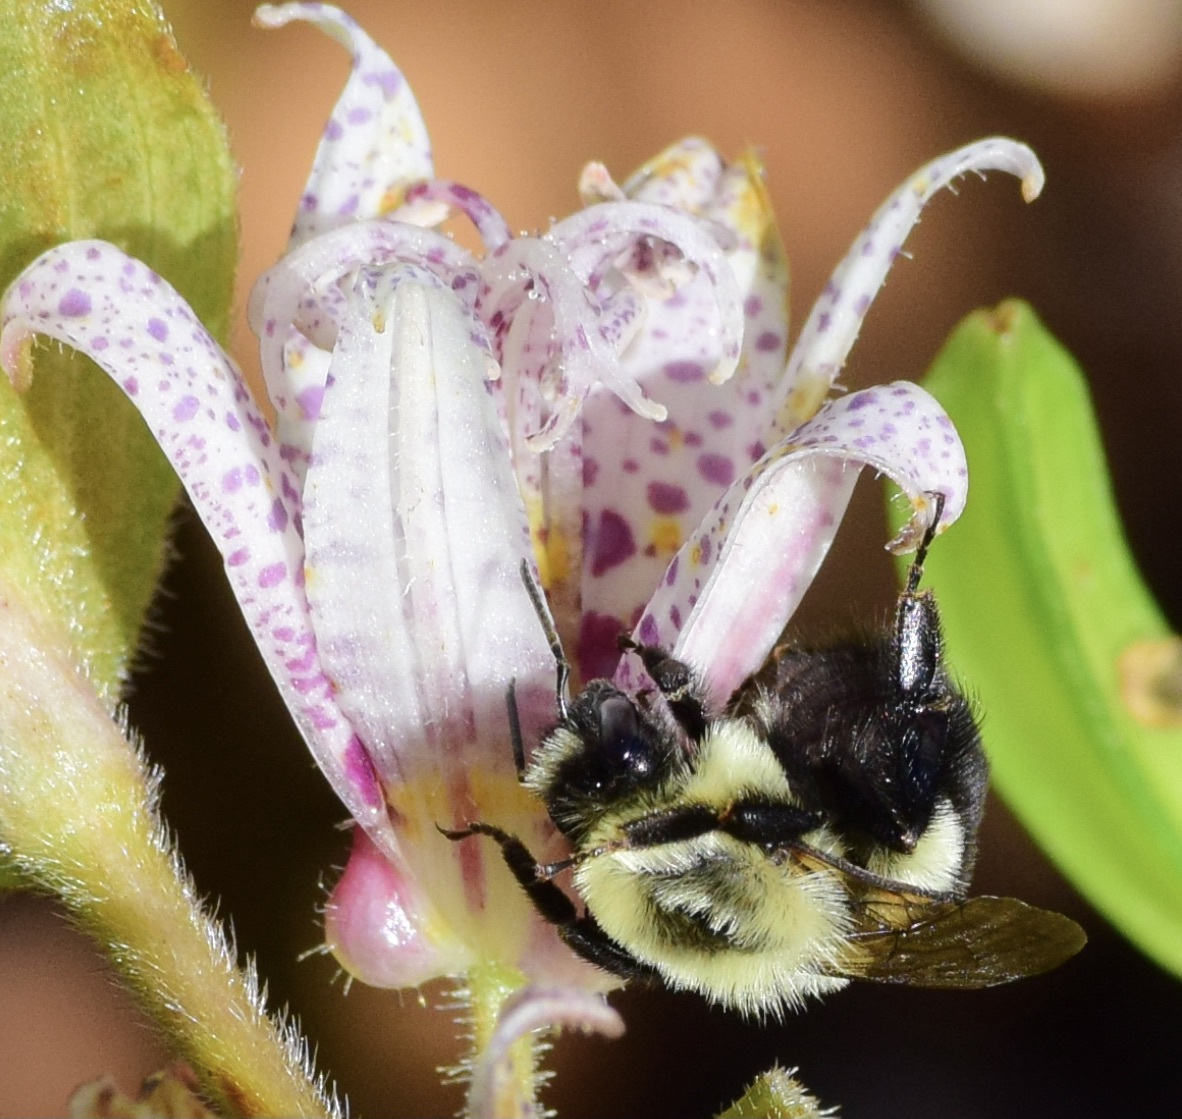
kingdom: Animalia
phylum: Arthropoda
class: Insecta
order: Hymenoptera
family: Apidae
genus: Bombus
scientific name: Bombus impatiens
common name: Common eastern bumble bee
